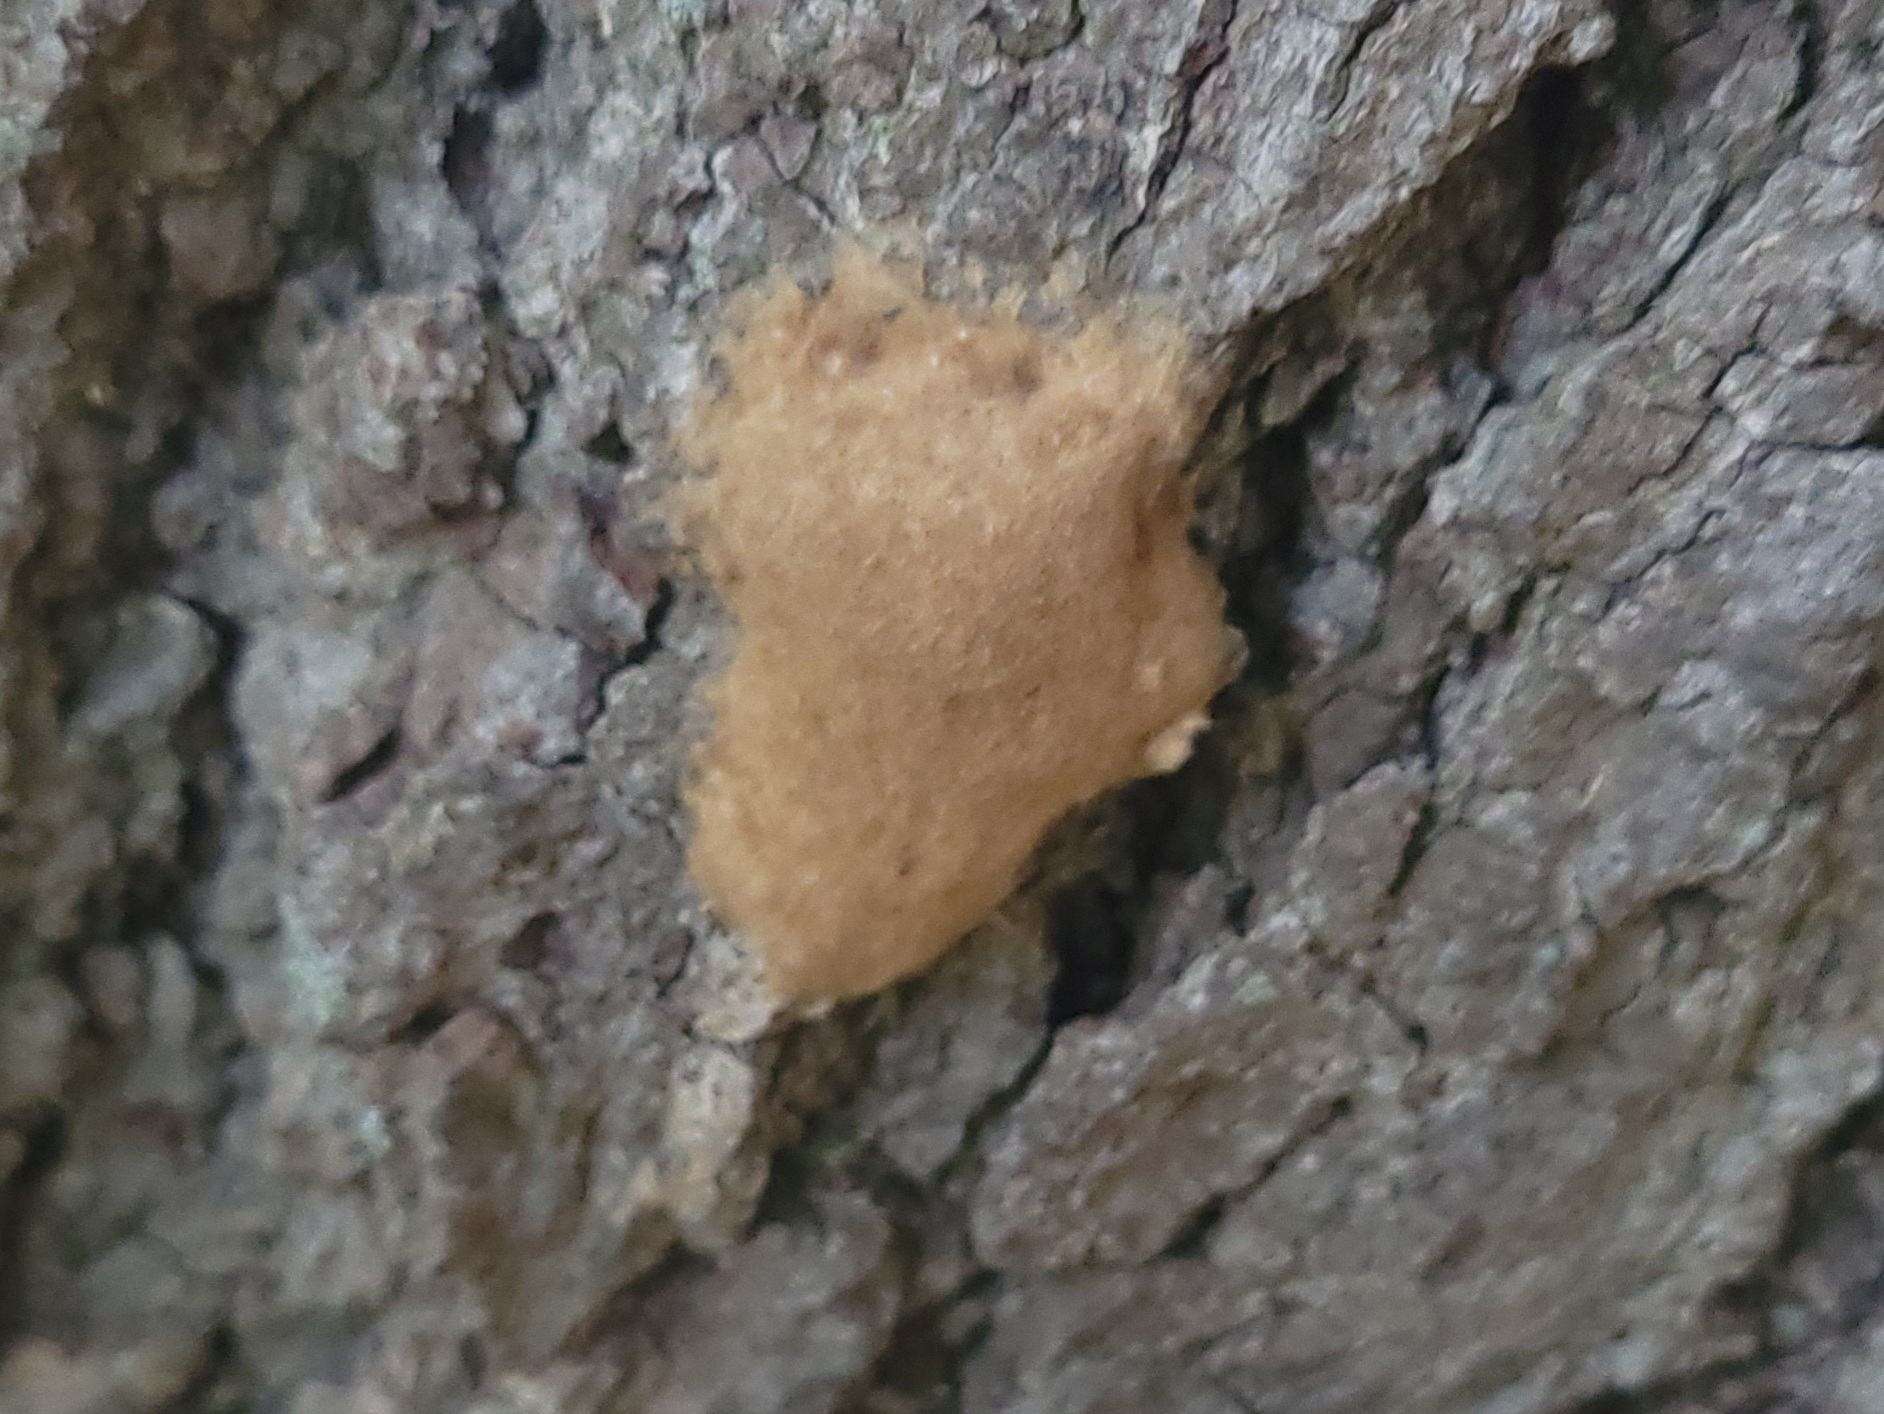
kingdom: Animalia
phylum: Arthropoda
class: Insecta
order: Lepidoptera
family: Erebidae
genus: Lymantria
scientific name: Lymantria dispar
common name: Gypsy moth
